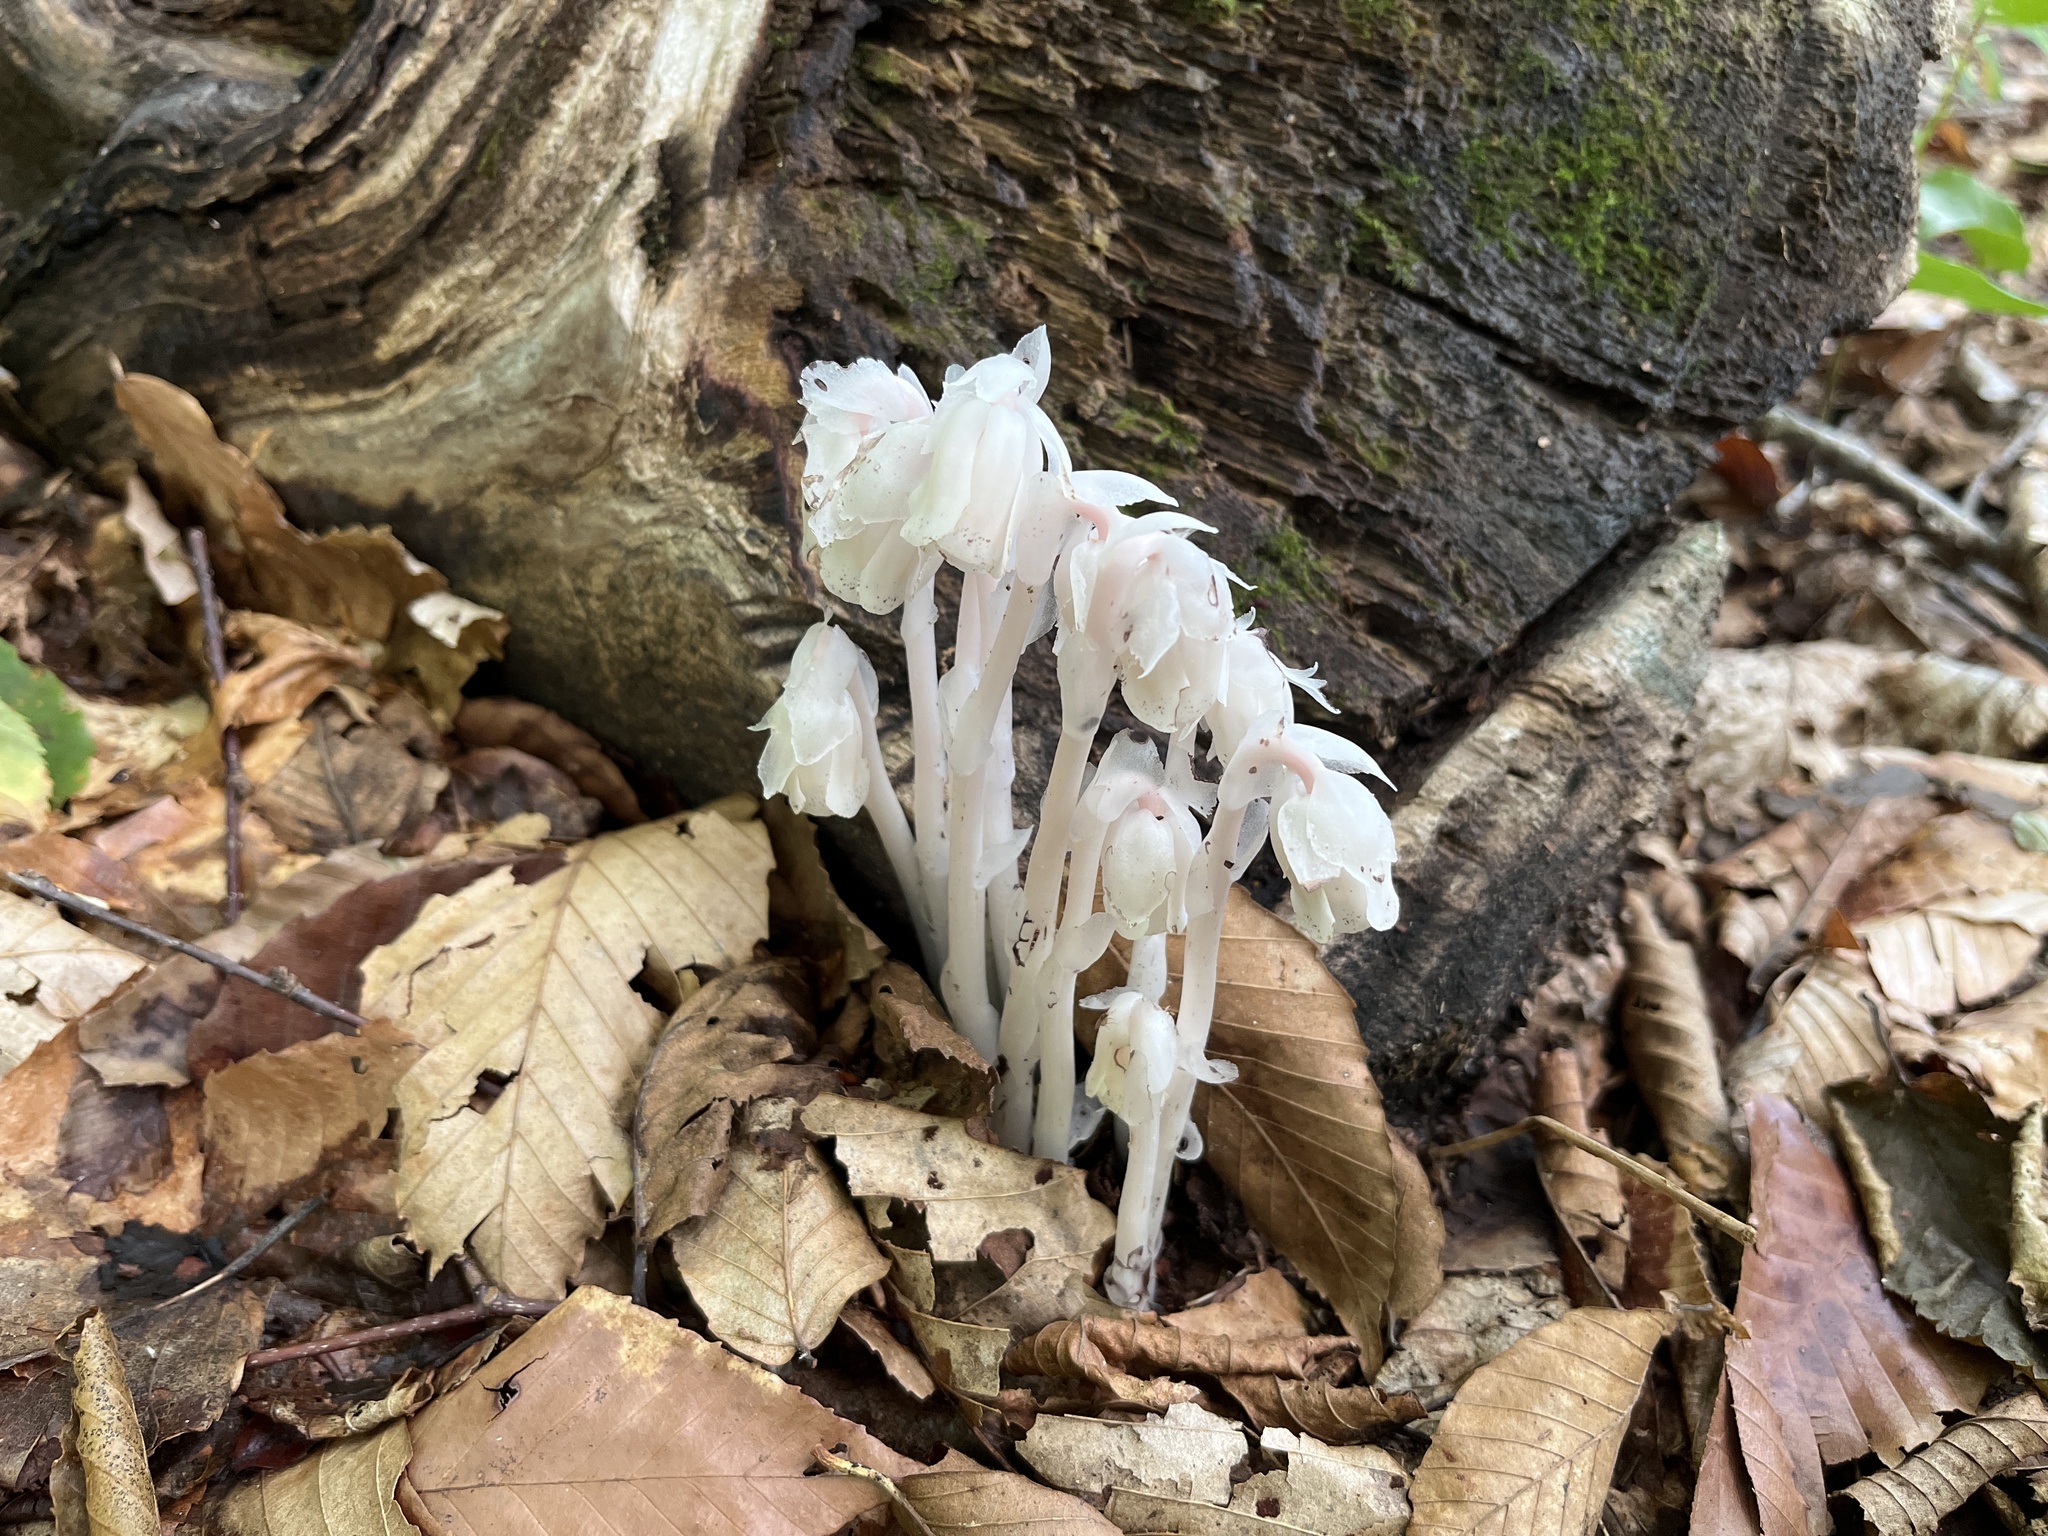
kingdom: Plantae
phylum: Tracheophyta
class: Magnoliopsida
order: Ericales
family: Ericaceae
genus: Monotropa
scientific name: Monotropa uniflora
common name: Convulsion root
